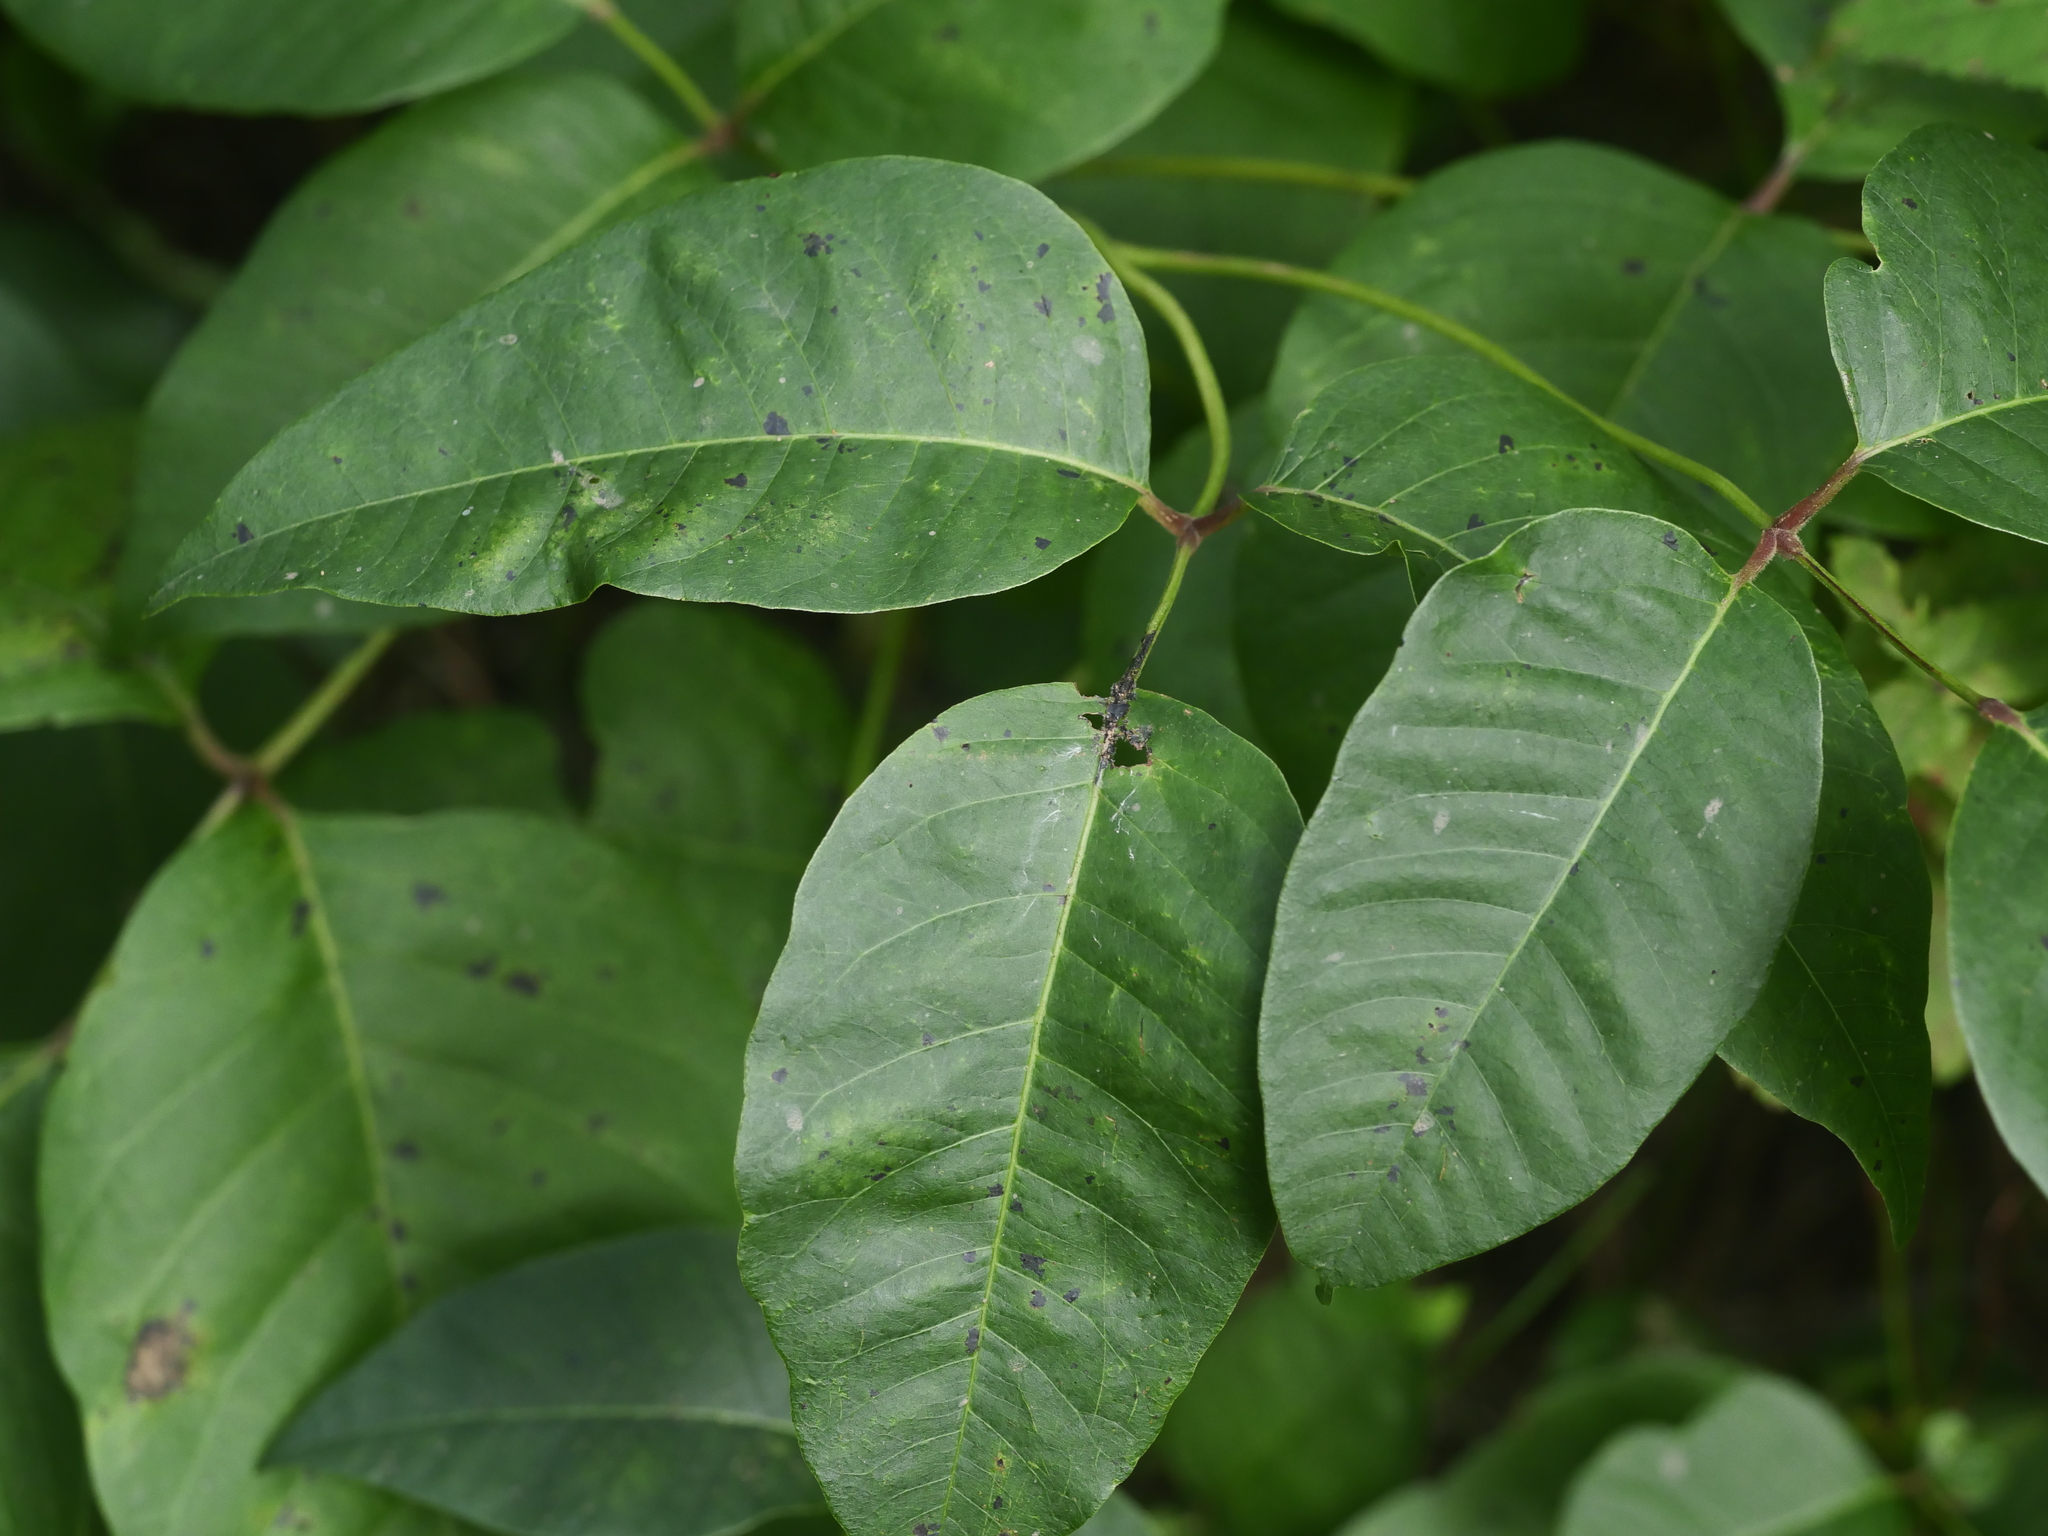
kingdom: Plantae
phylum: Tracheophyta
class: Magnoliopsida
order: Sapindales
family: Anacardiaceae
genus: Toxicodendron
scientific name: Toxicodendron rydbergii
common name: Rydberg's poison-ivy
